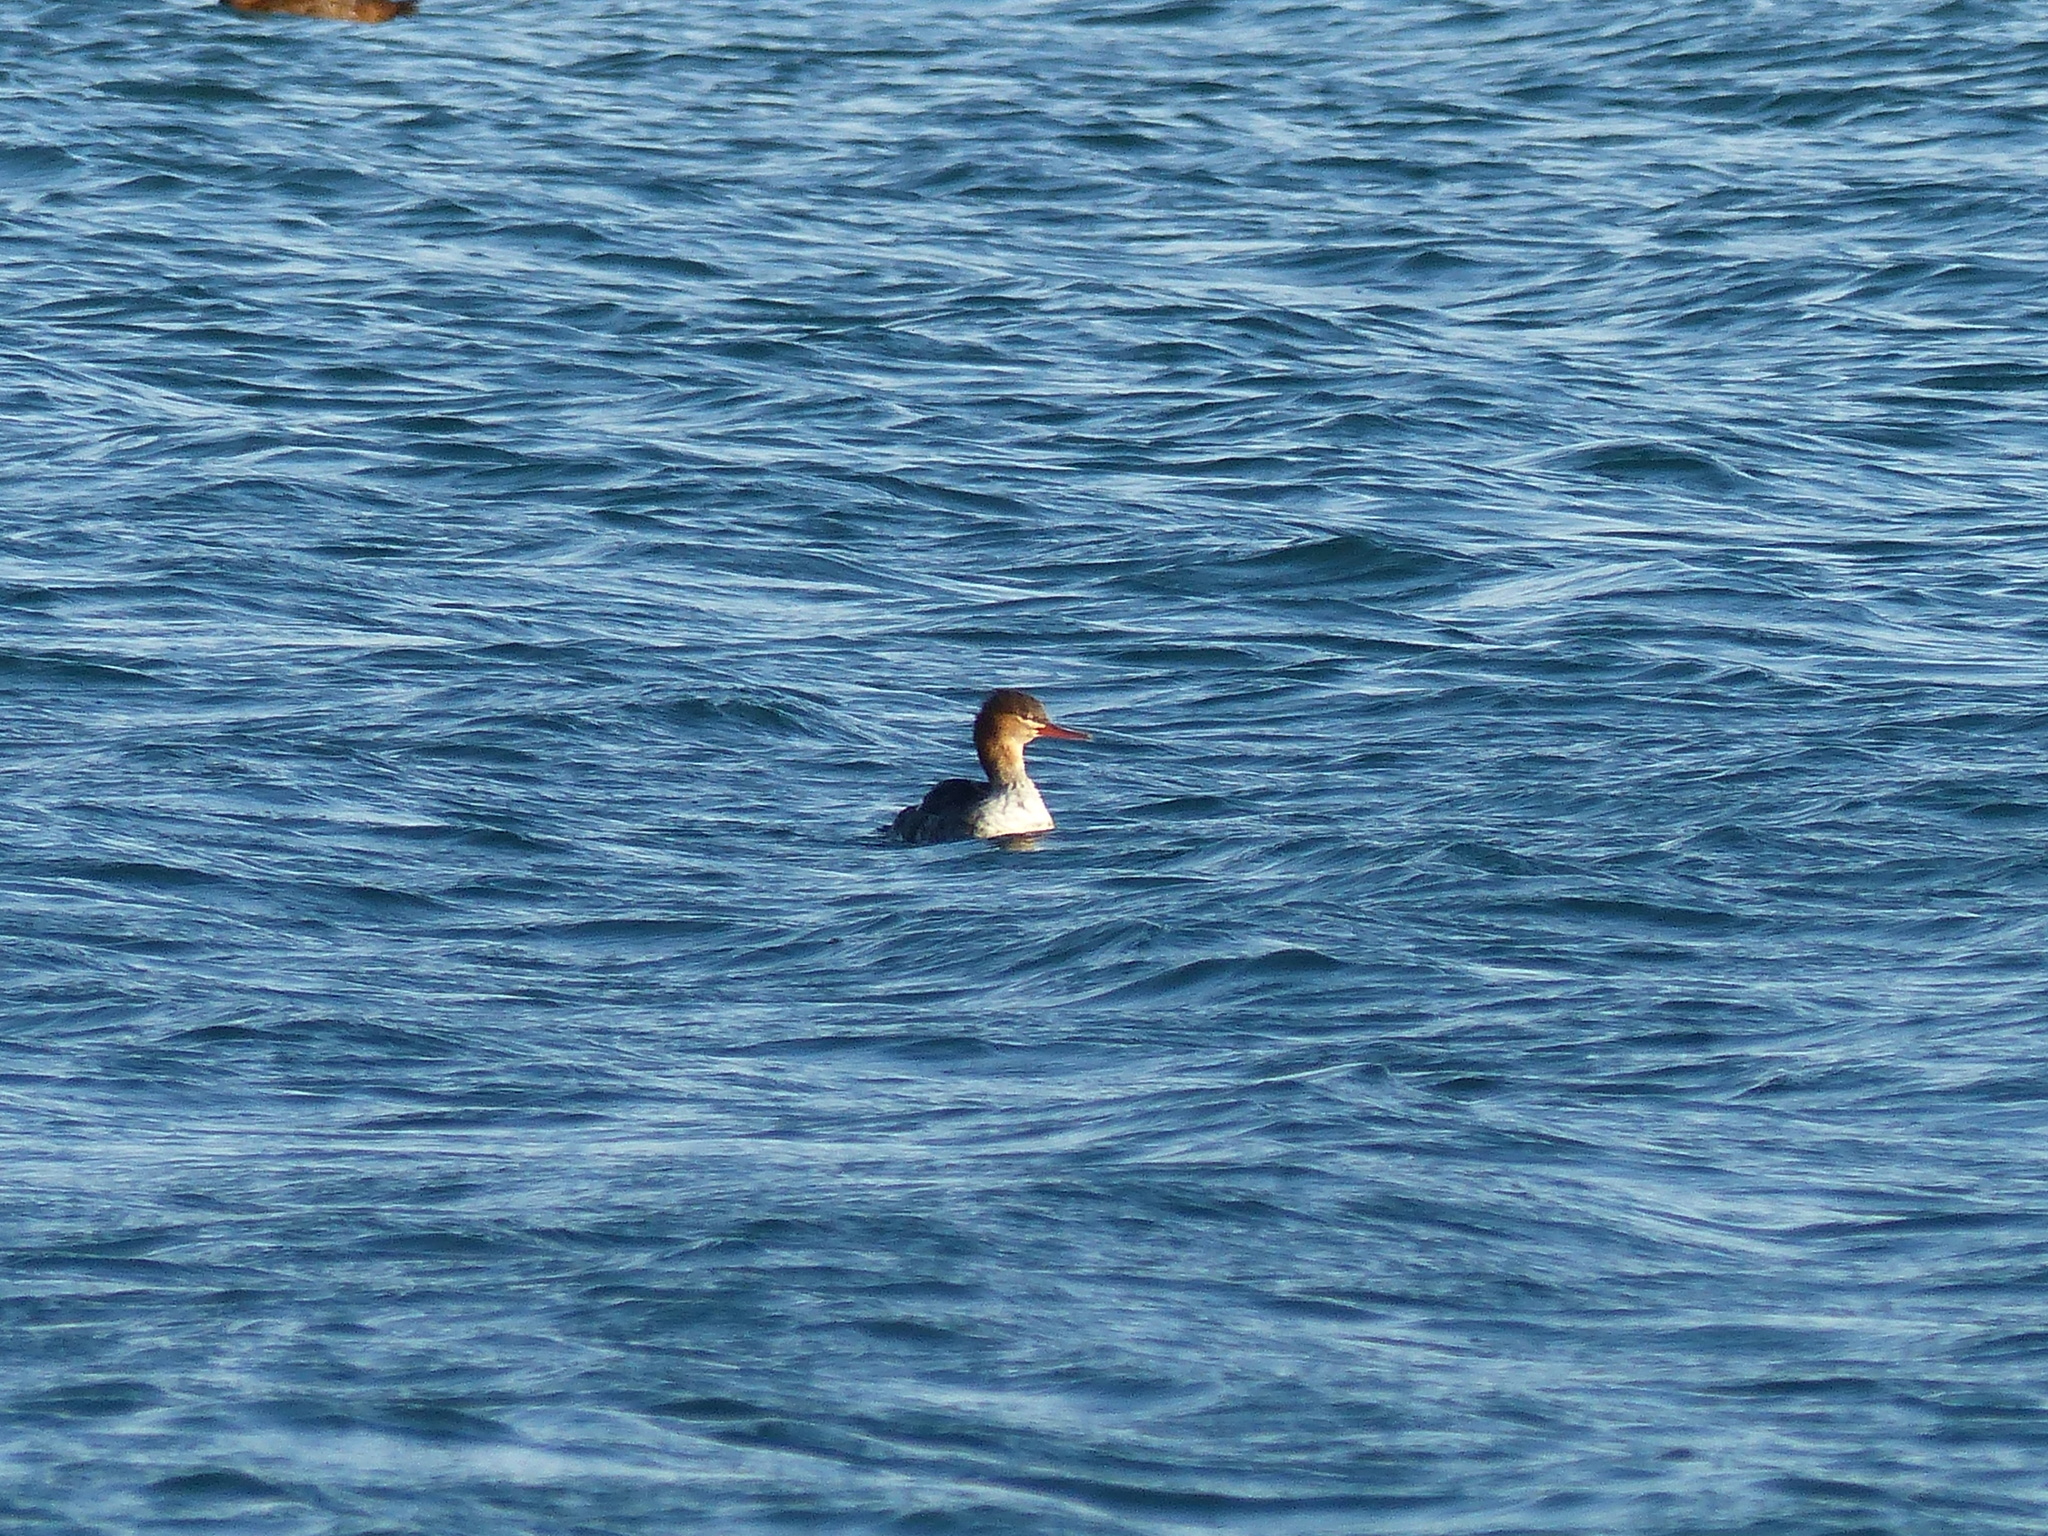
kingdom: Animalia
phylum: Chordata
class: Aves
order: Anseriformes
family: Anatidae
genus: Mergus
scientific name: Mergus serrator
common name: Red-breasted merganser
